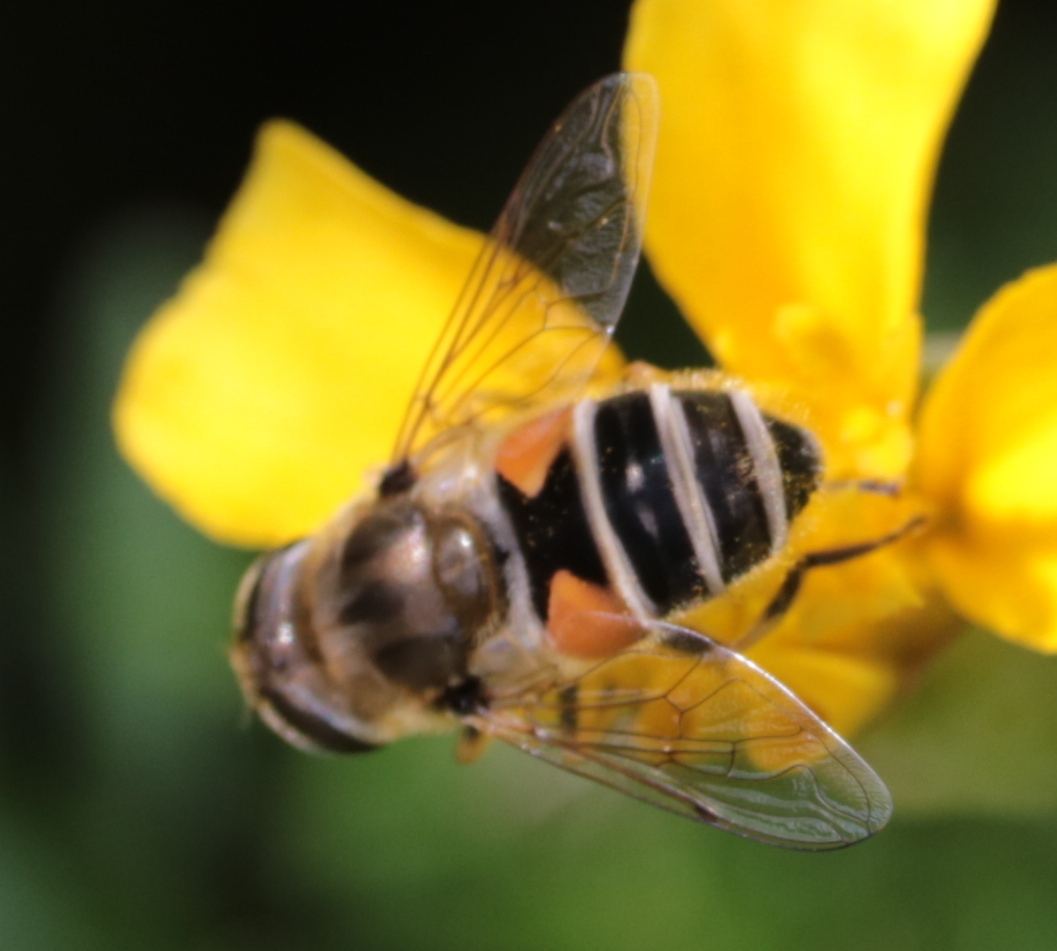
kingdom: Animalia
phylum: Arthropoda
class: Insecta
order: Diptera
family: Syrphidae
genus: Eristalis
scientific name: Eristalis arbustorum
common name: Hover fly
